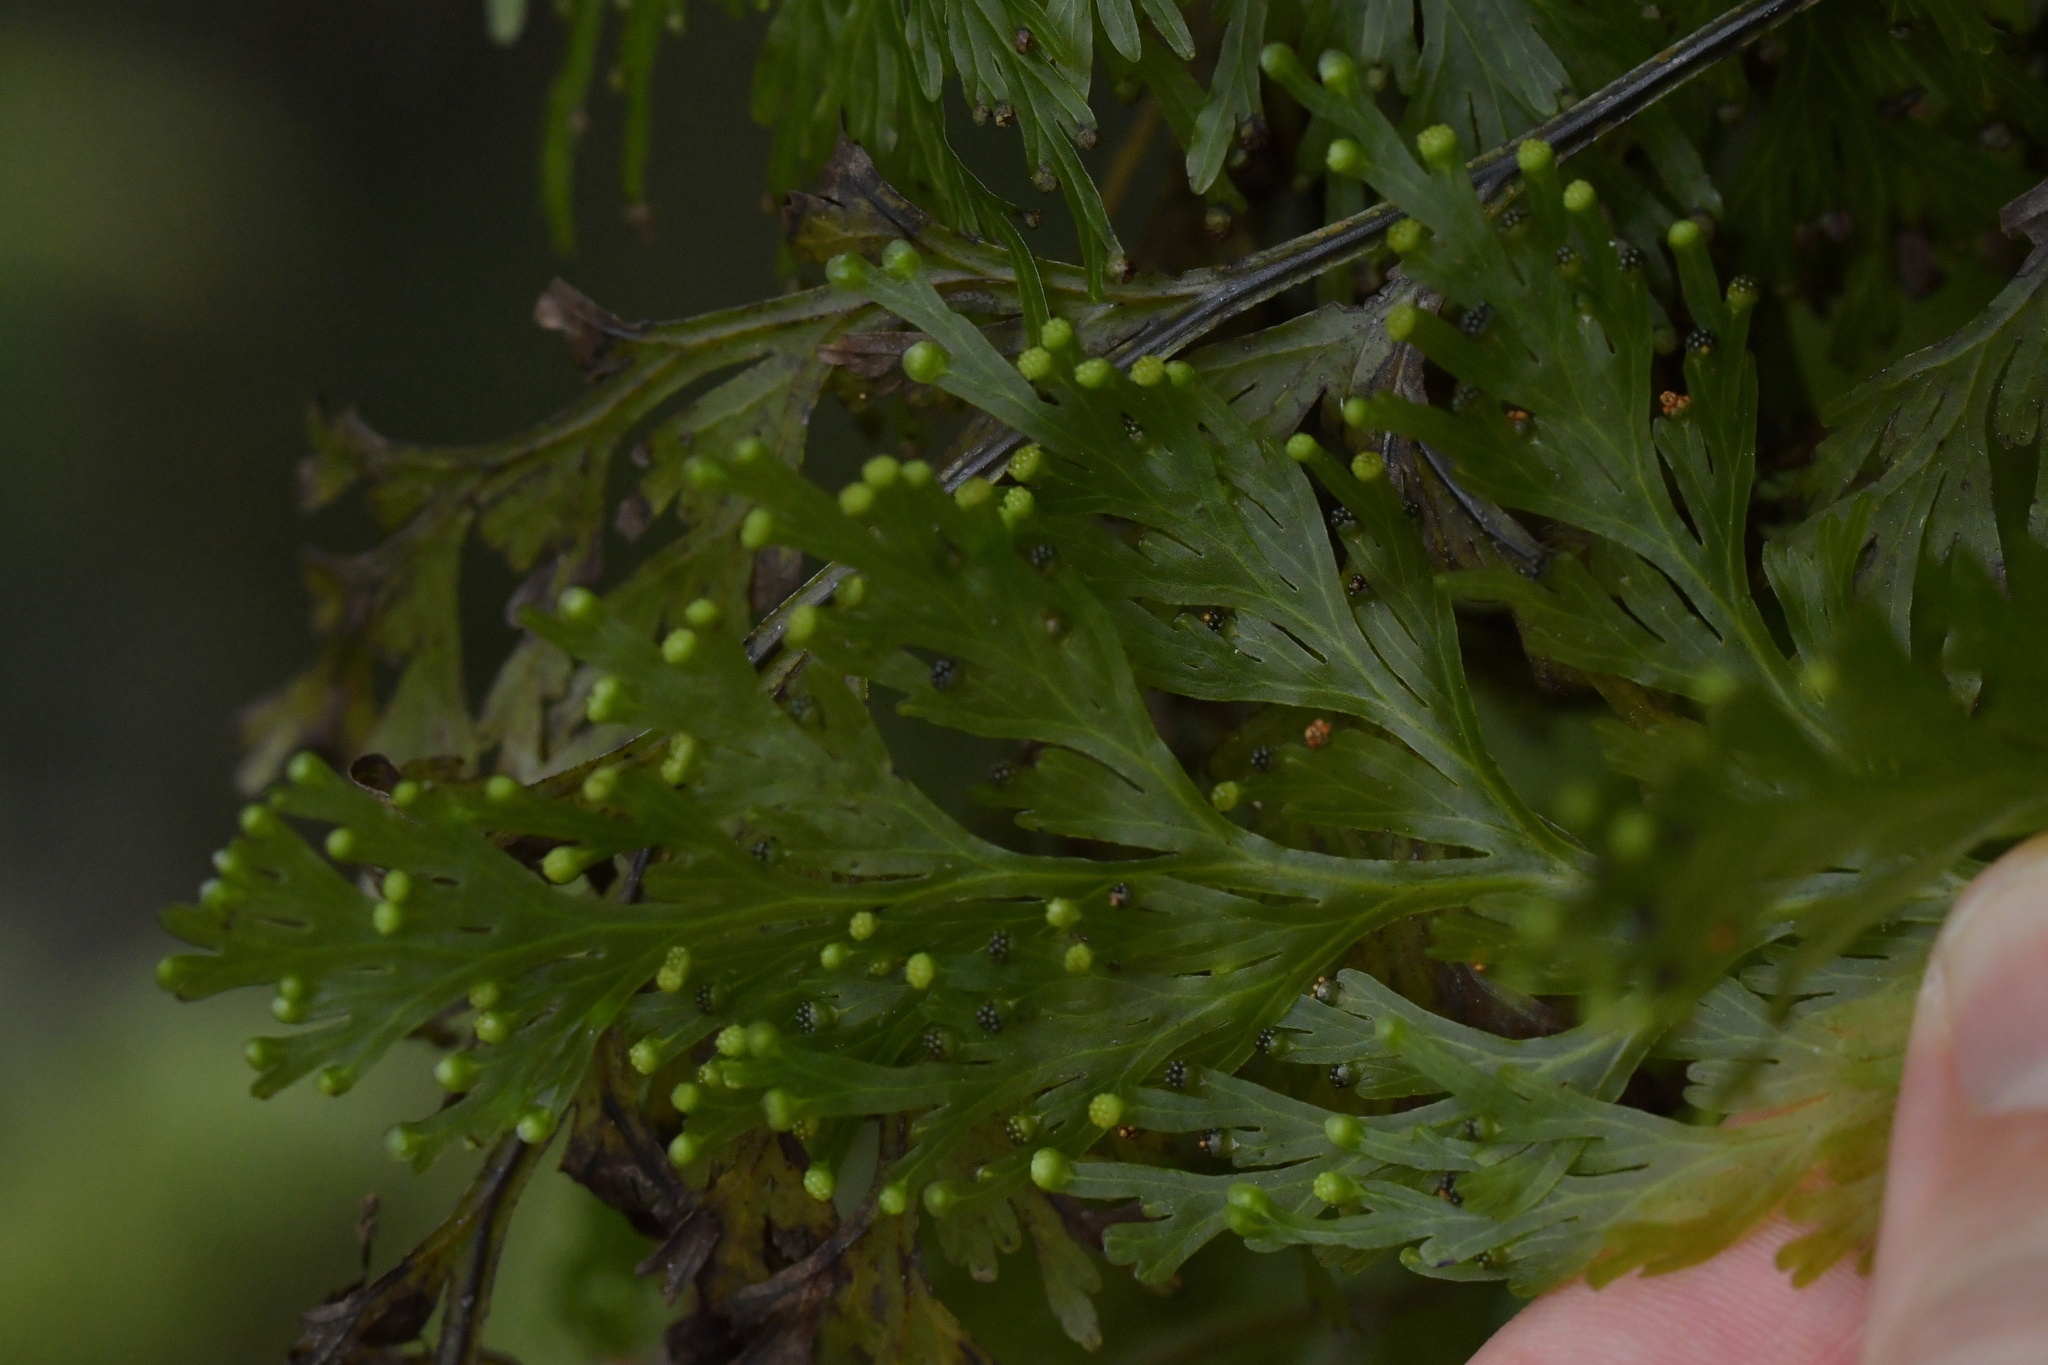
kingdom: Plantae
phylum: Tracheophyta
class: Polypodiopsida
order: Hymenophyllales
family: Hymenophyllaceae
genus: Hymenophyllum
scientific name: Hymenophyllum dilatatum
